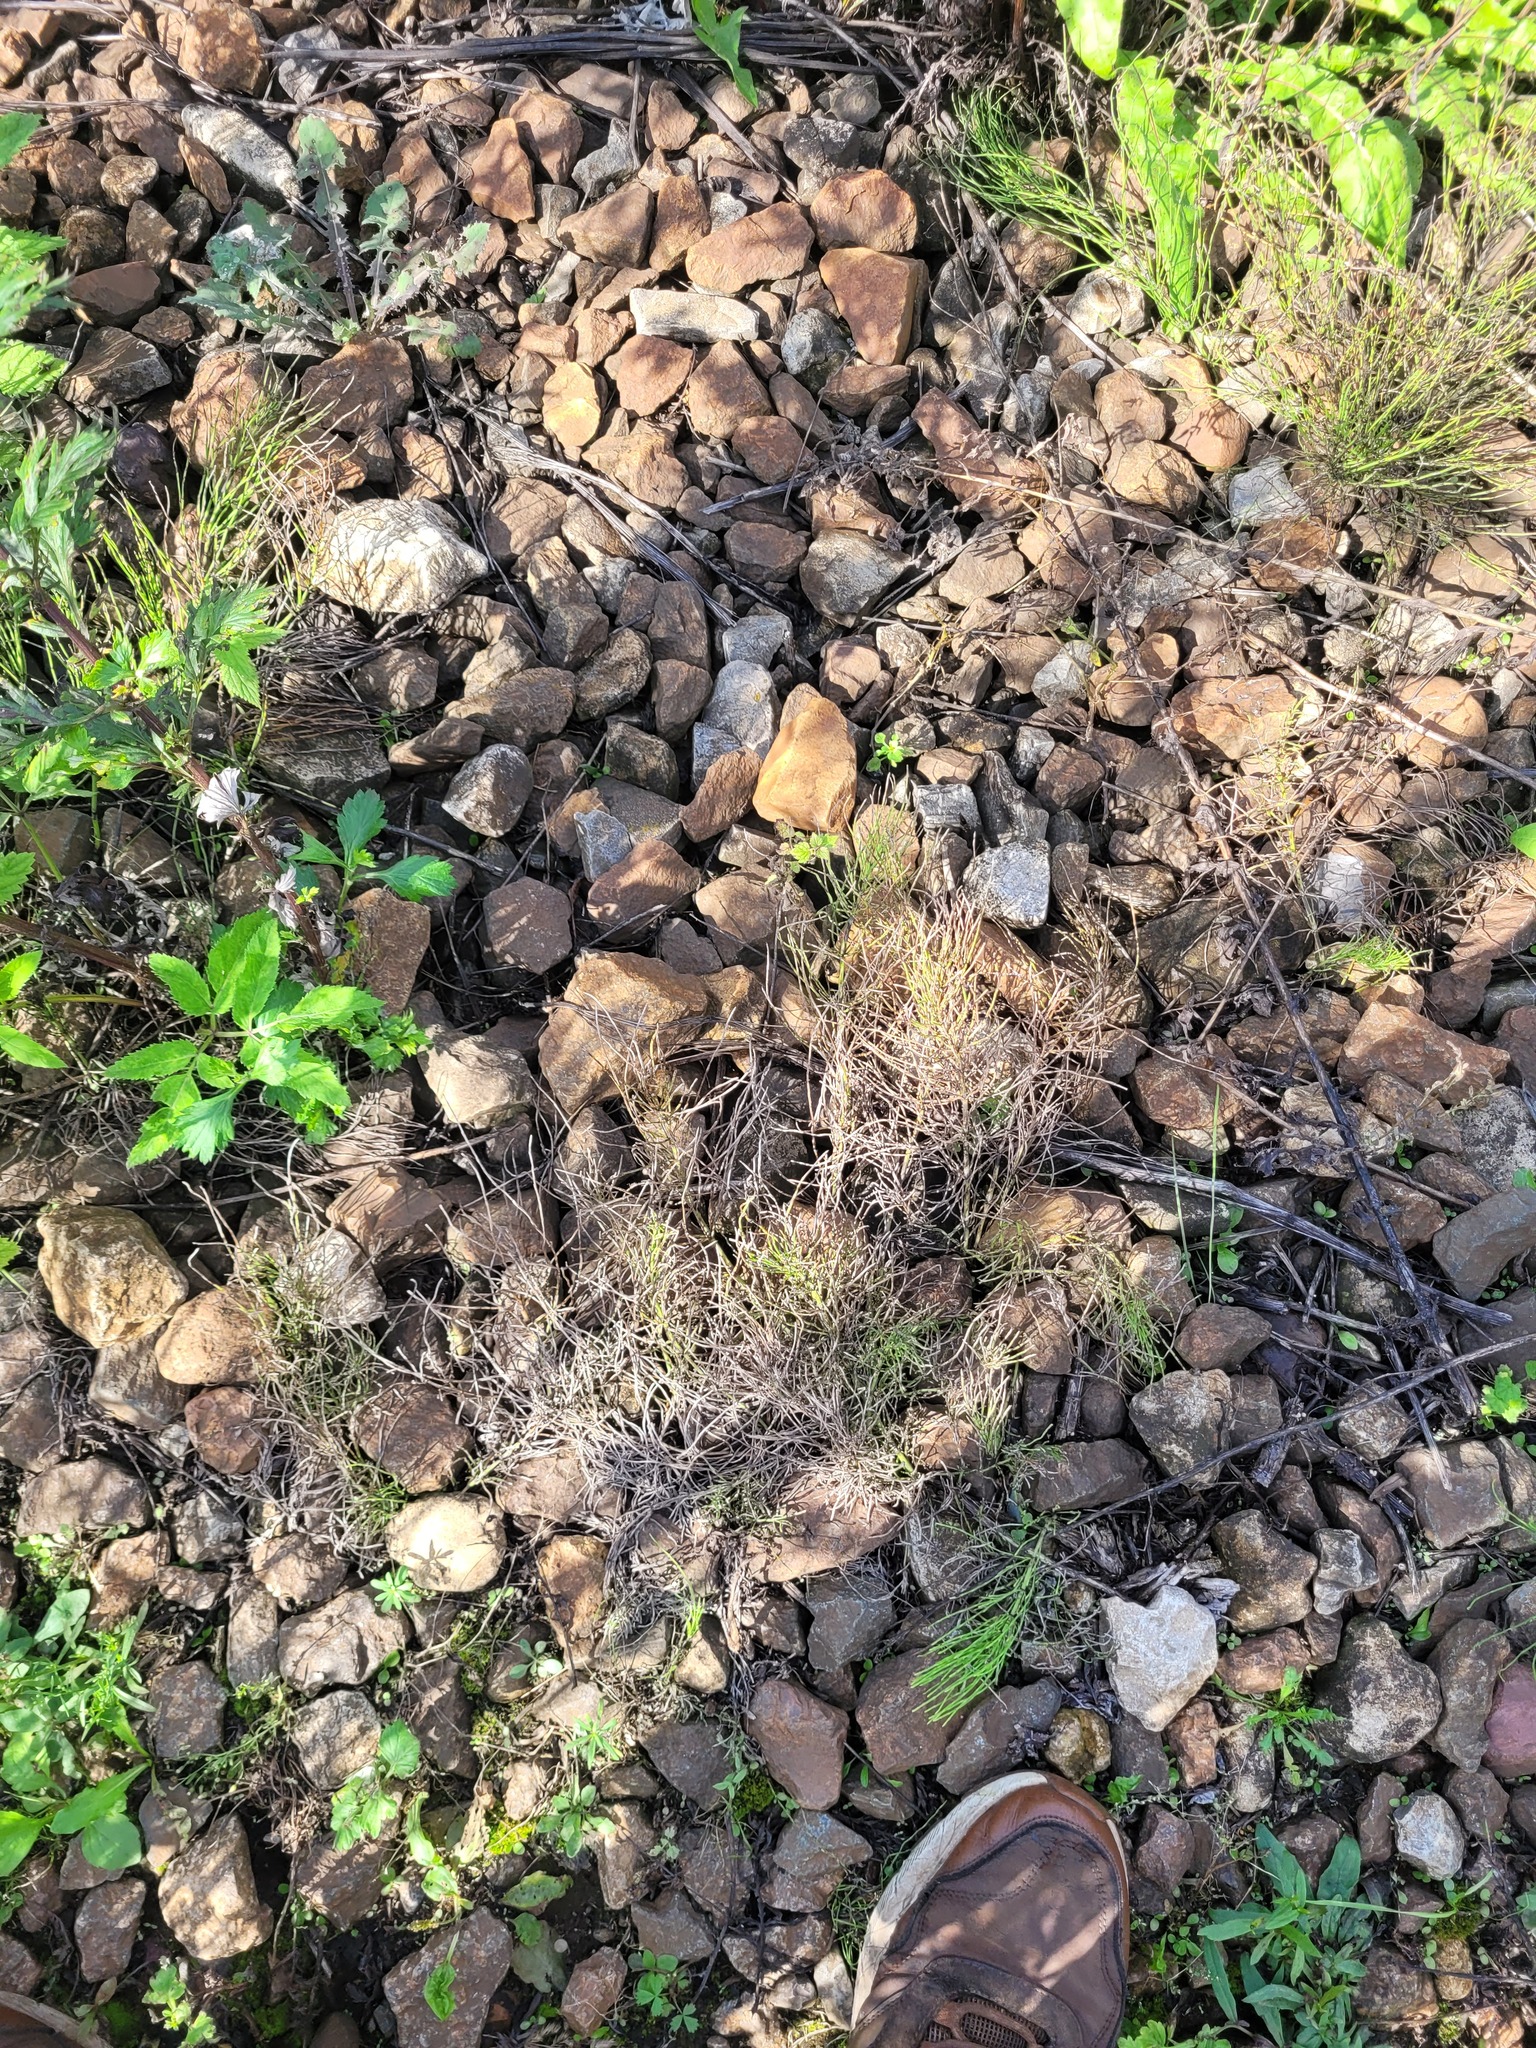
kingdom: Plantae
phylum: Tracheophyta
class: Polypodiopsida
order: Equisetales
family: Equisetaceae
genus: Equisetum
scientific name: Equisetum arvense
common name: Field horsetail
